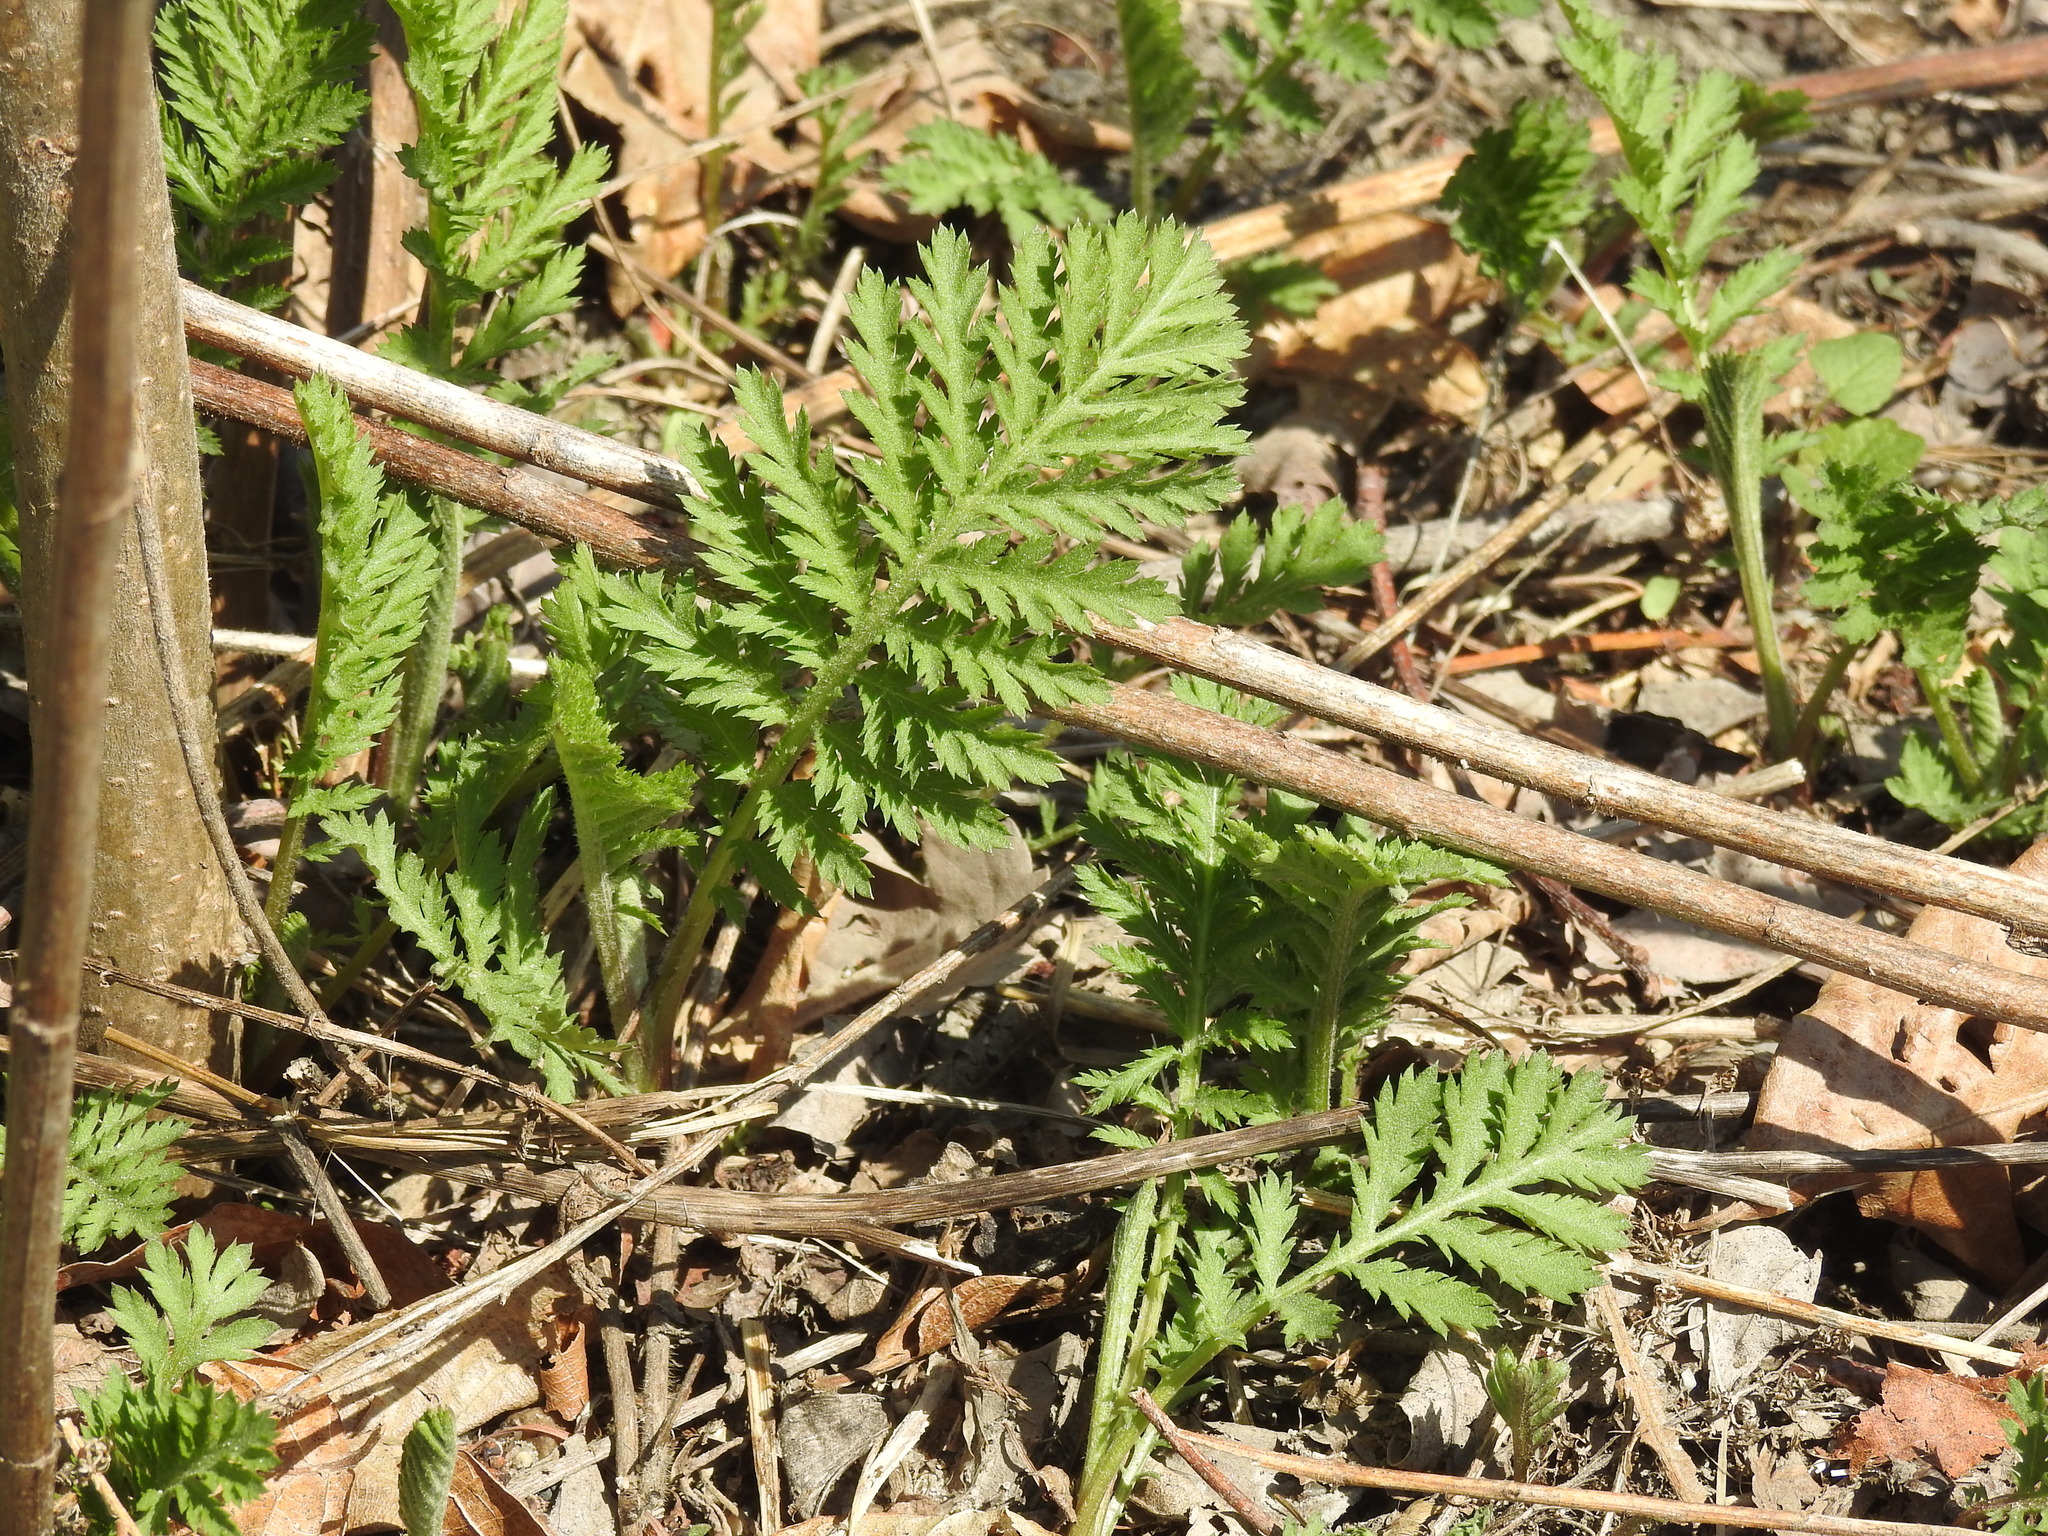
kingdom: Plantae
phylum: Tracheophyta
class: Magnoliopsida
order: Asterales
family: Asteraceae
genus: Tanacetum
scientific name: Tanacetum vulgare
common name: Common tansy
